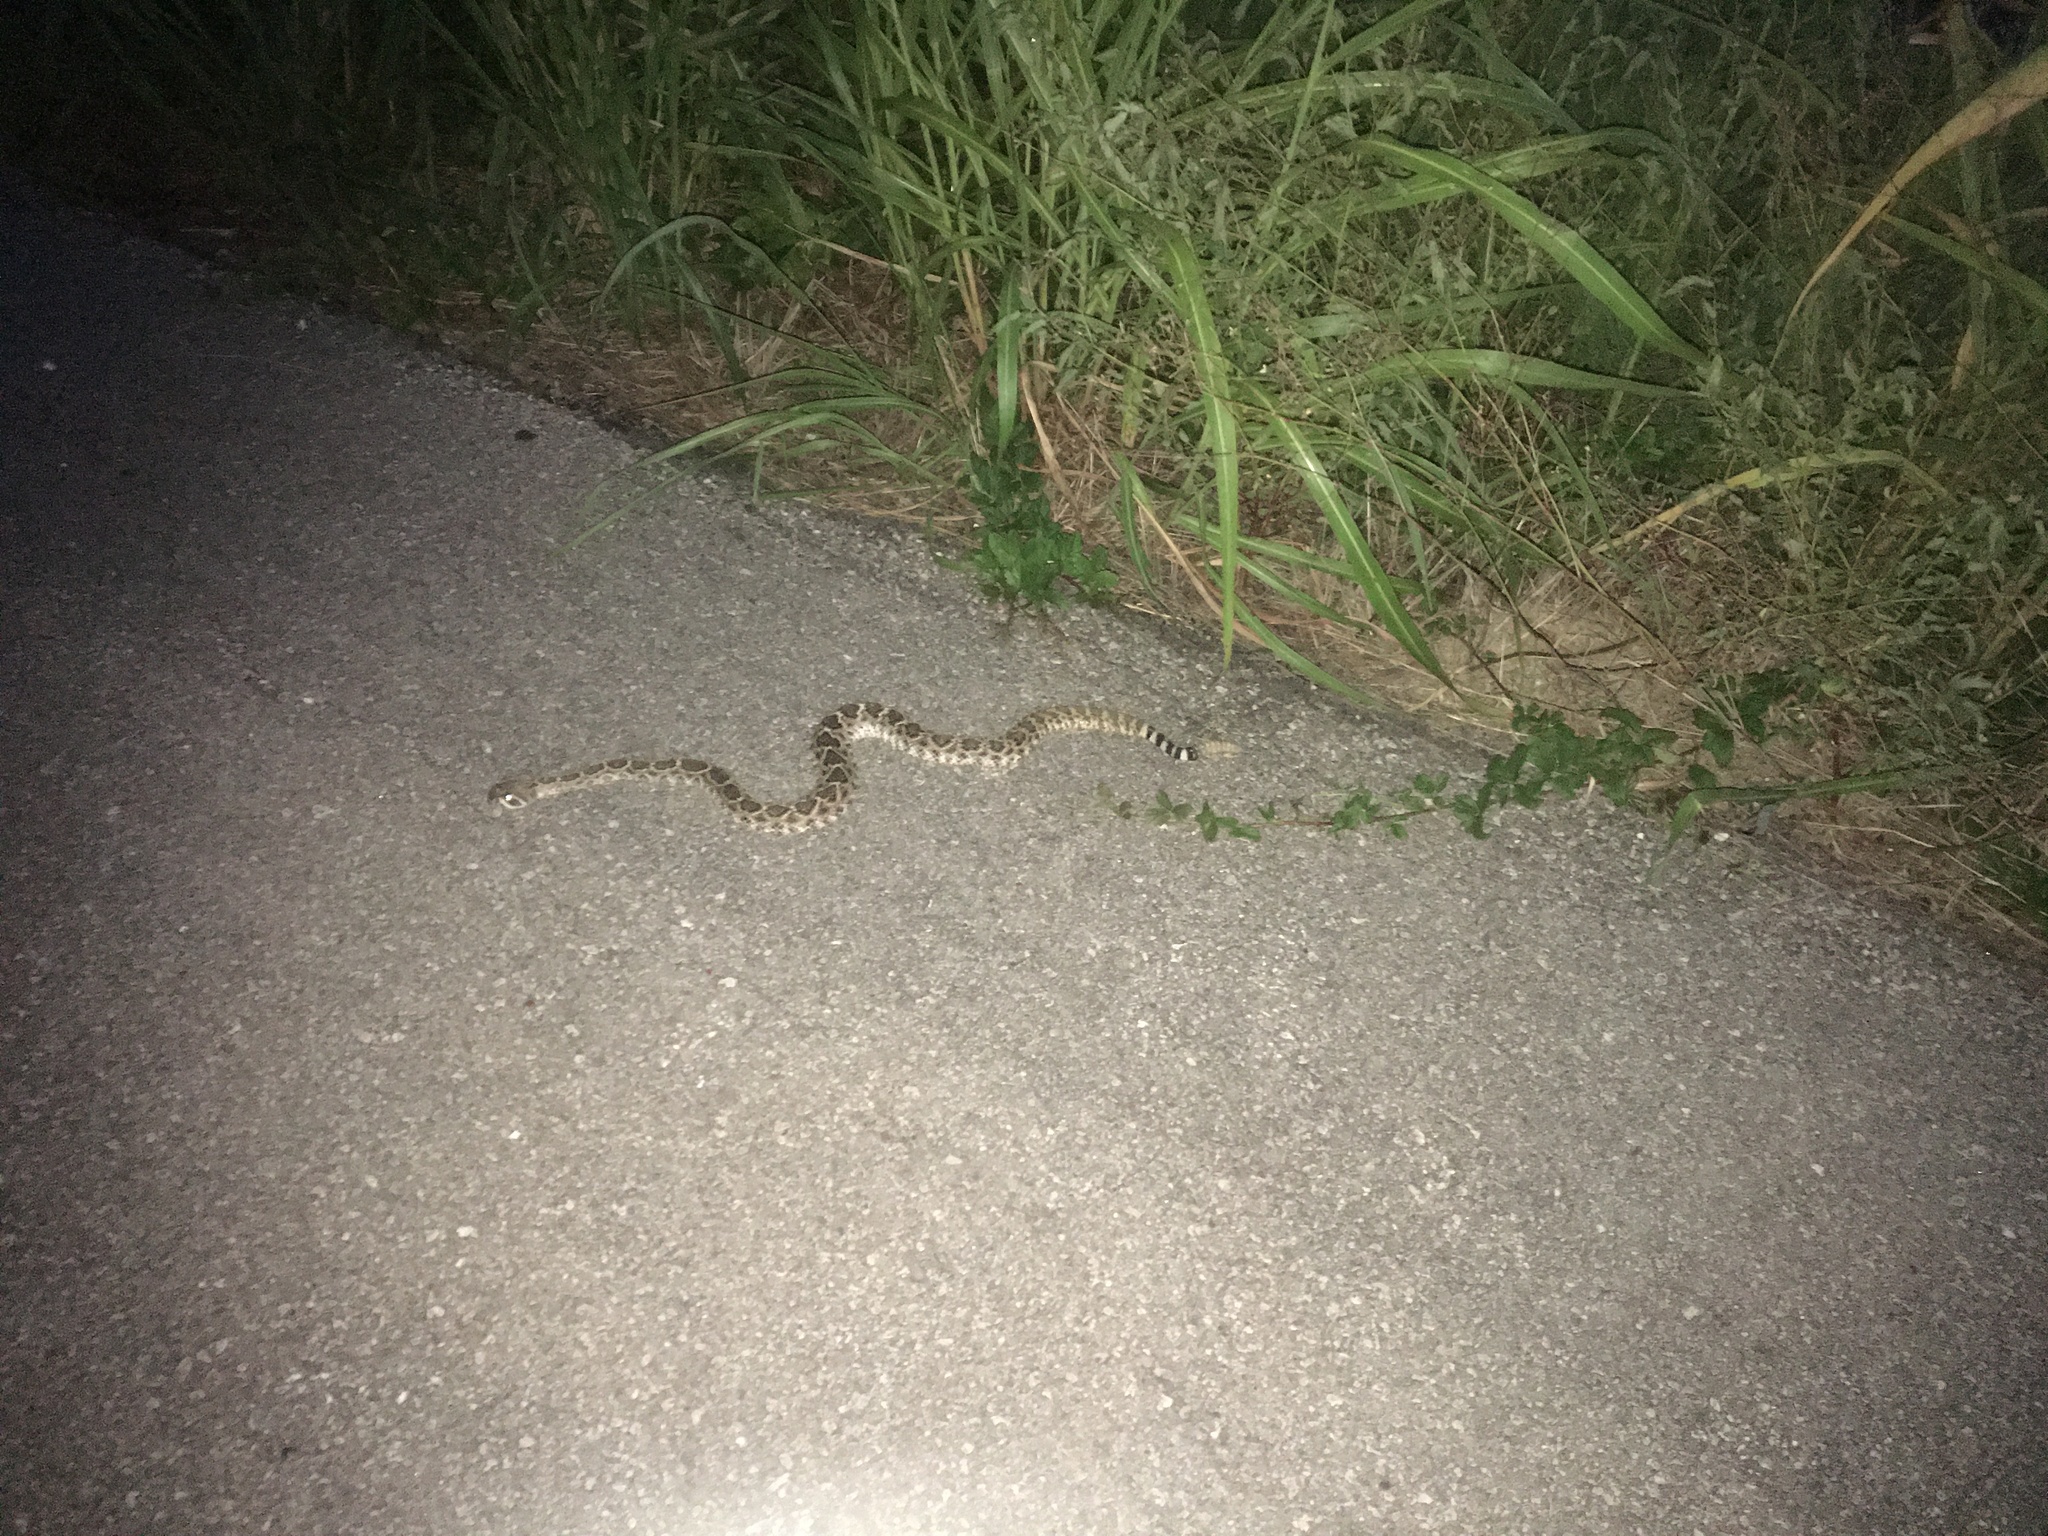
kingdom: Animalia
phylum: Chordata
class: Squamata
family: Viperidae
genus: Crotalus
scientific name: Crotalus atrox
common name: Western diamond-backed rattlesnake
